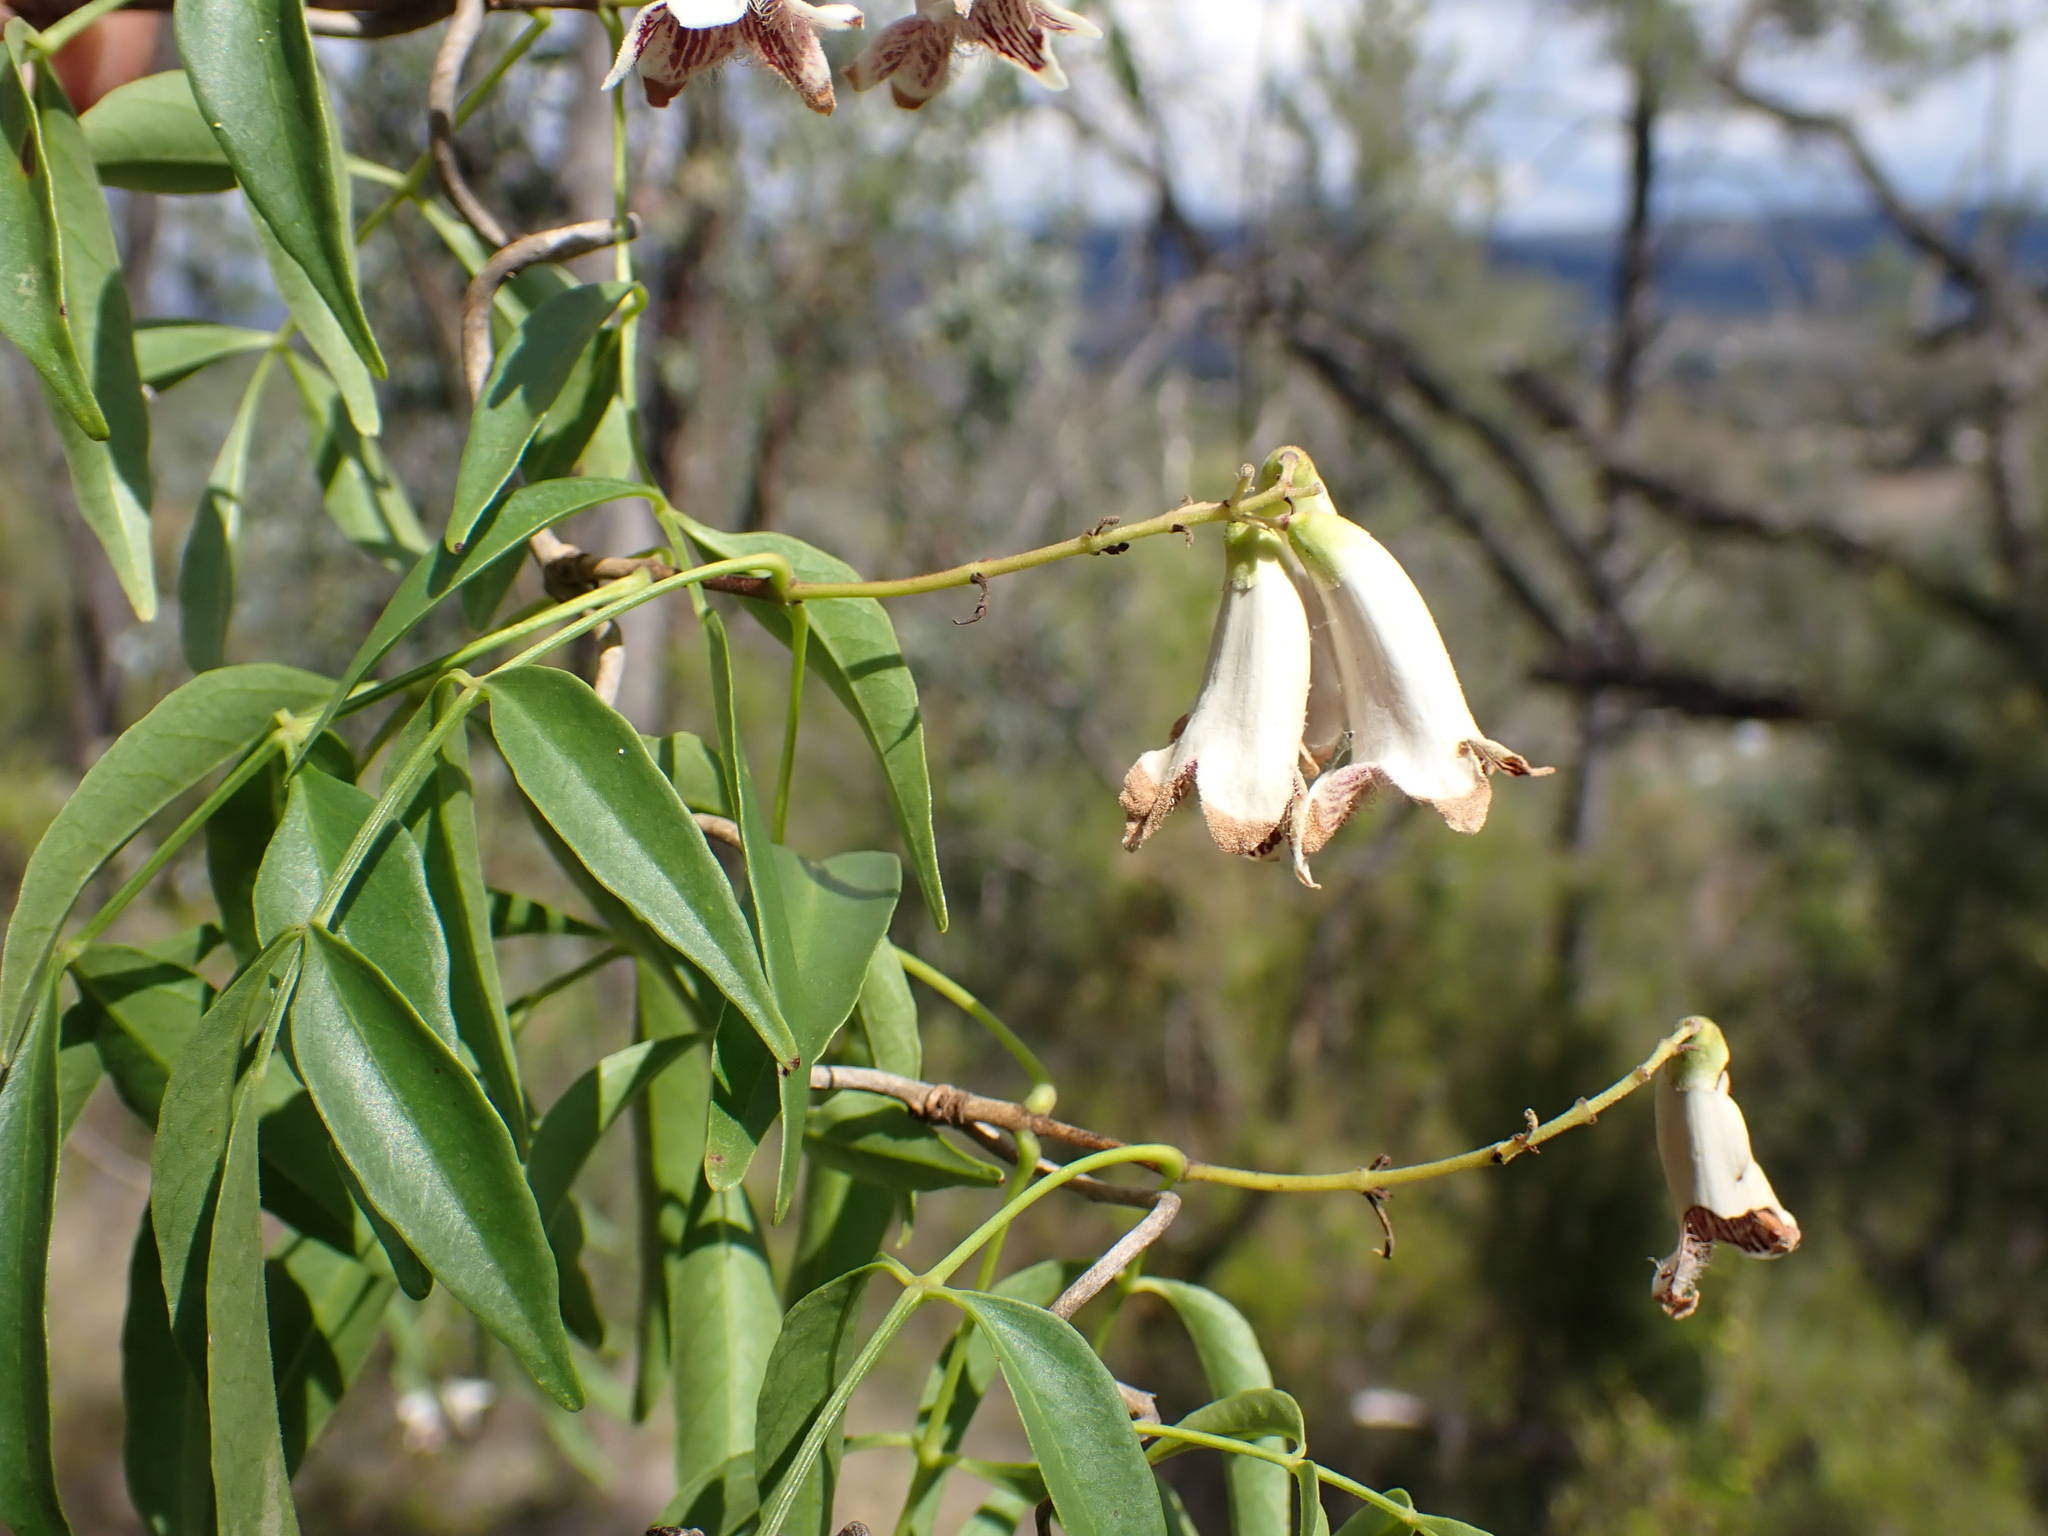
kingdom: Plantae
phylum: Tracheophyta
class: Magnoliopsida
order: Lamiales
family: Bignoniaceae
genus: Pandorea
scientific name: Pandorea pandorana
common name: Wonga-wonga-vine
